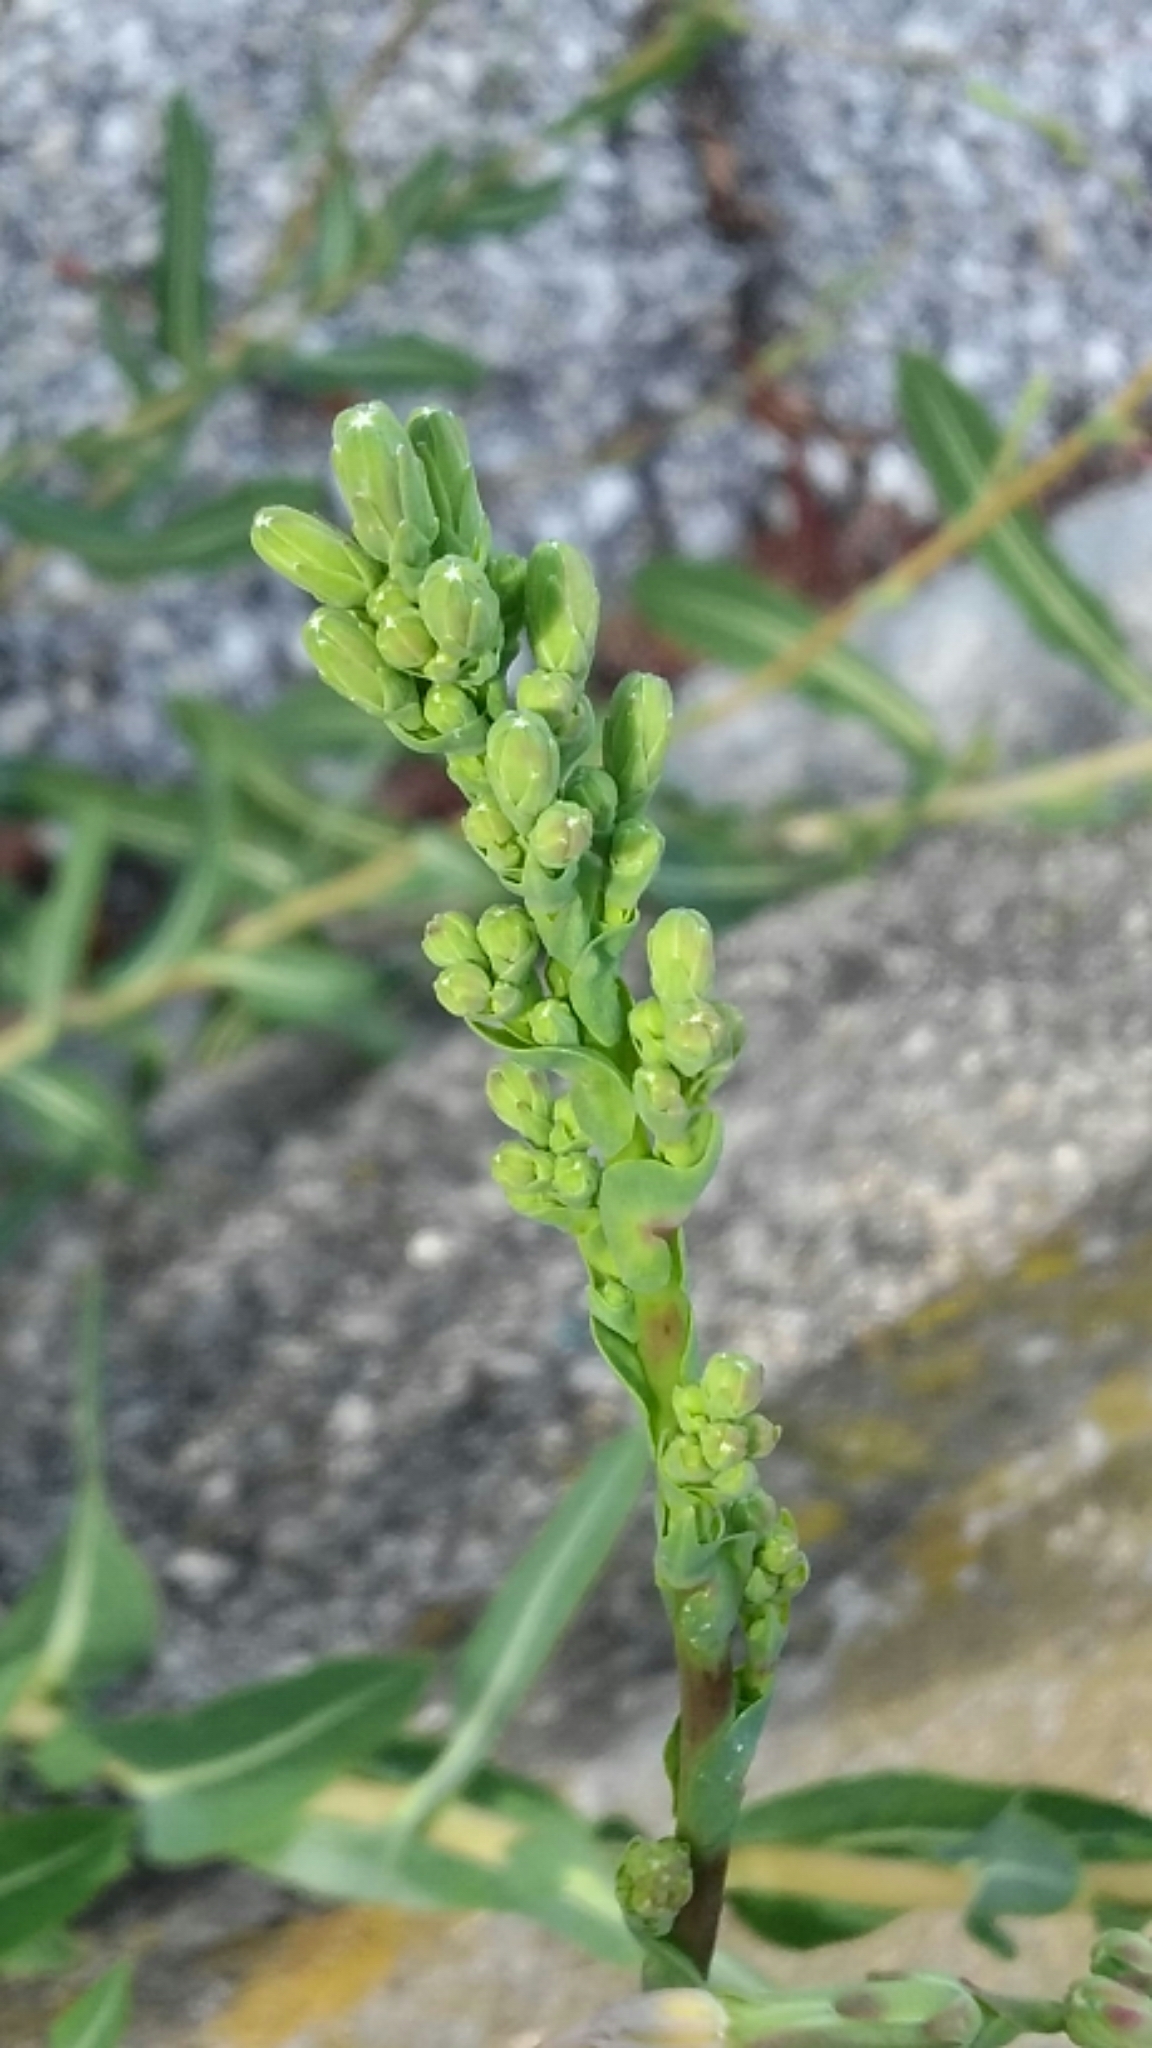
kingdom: Plantae
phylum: Tracheophyta
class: Magnoliopsida
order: Asterales
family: Asteraceae
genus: Erigeron
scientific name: Erigeron canadensis
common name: Canadian fleabane
